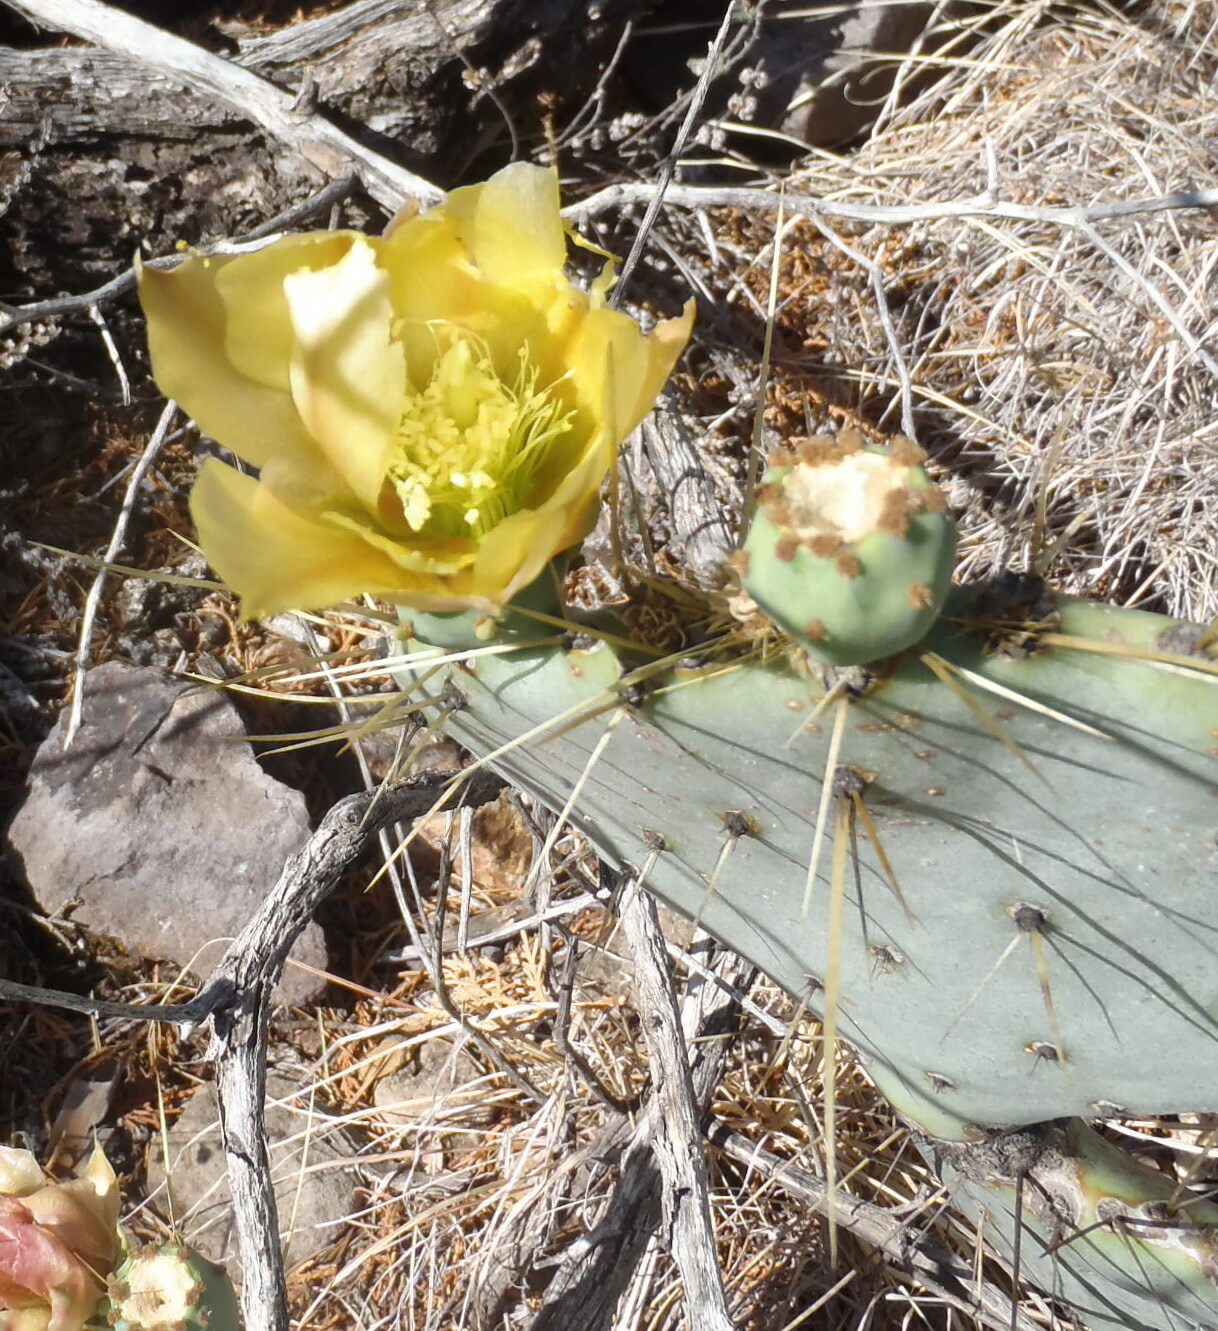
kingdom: Plantae
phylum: Tracheophyta
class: Magnoliopsida
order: Caryophyllales
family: Cactaceae
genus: Opuntia
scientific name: Opuntia chisosensis
